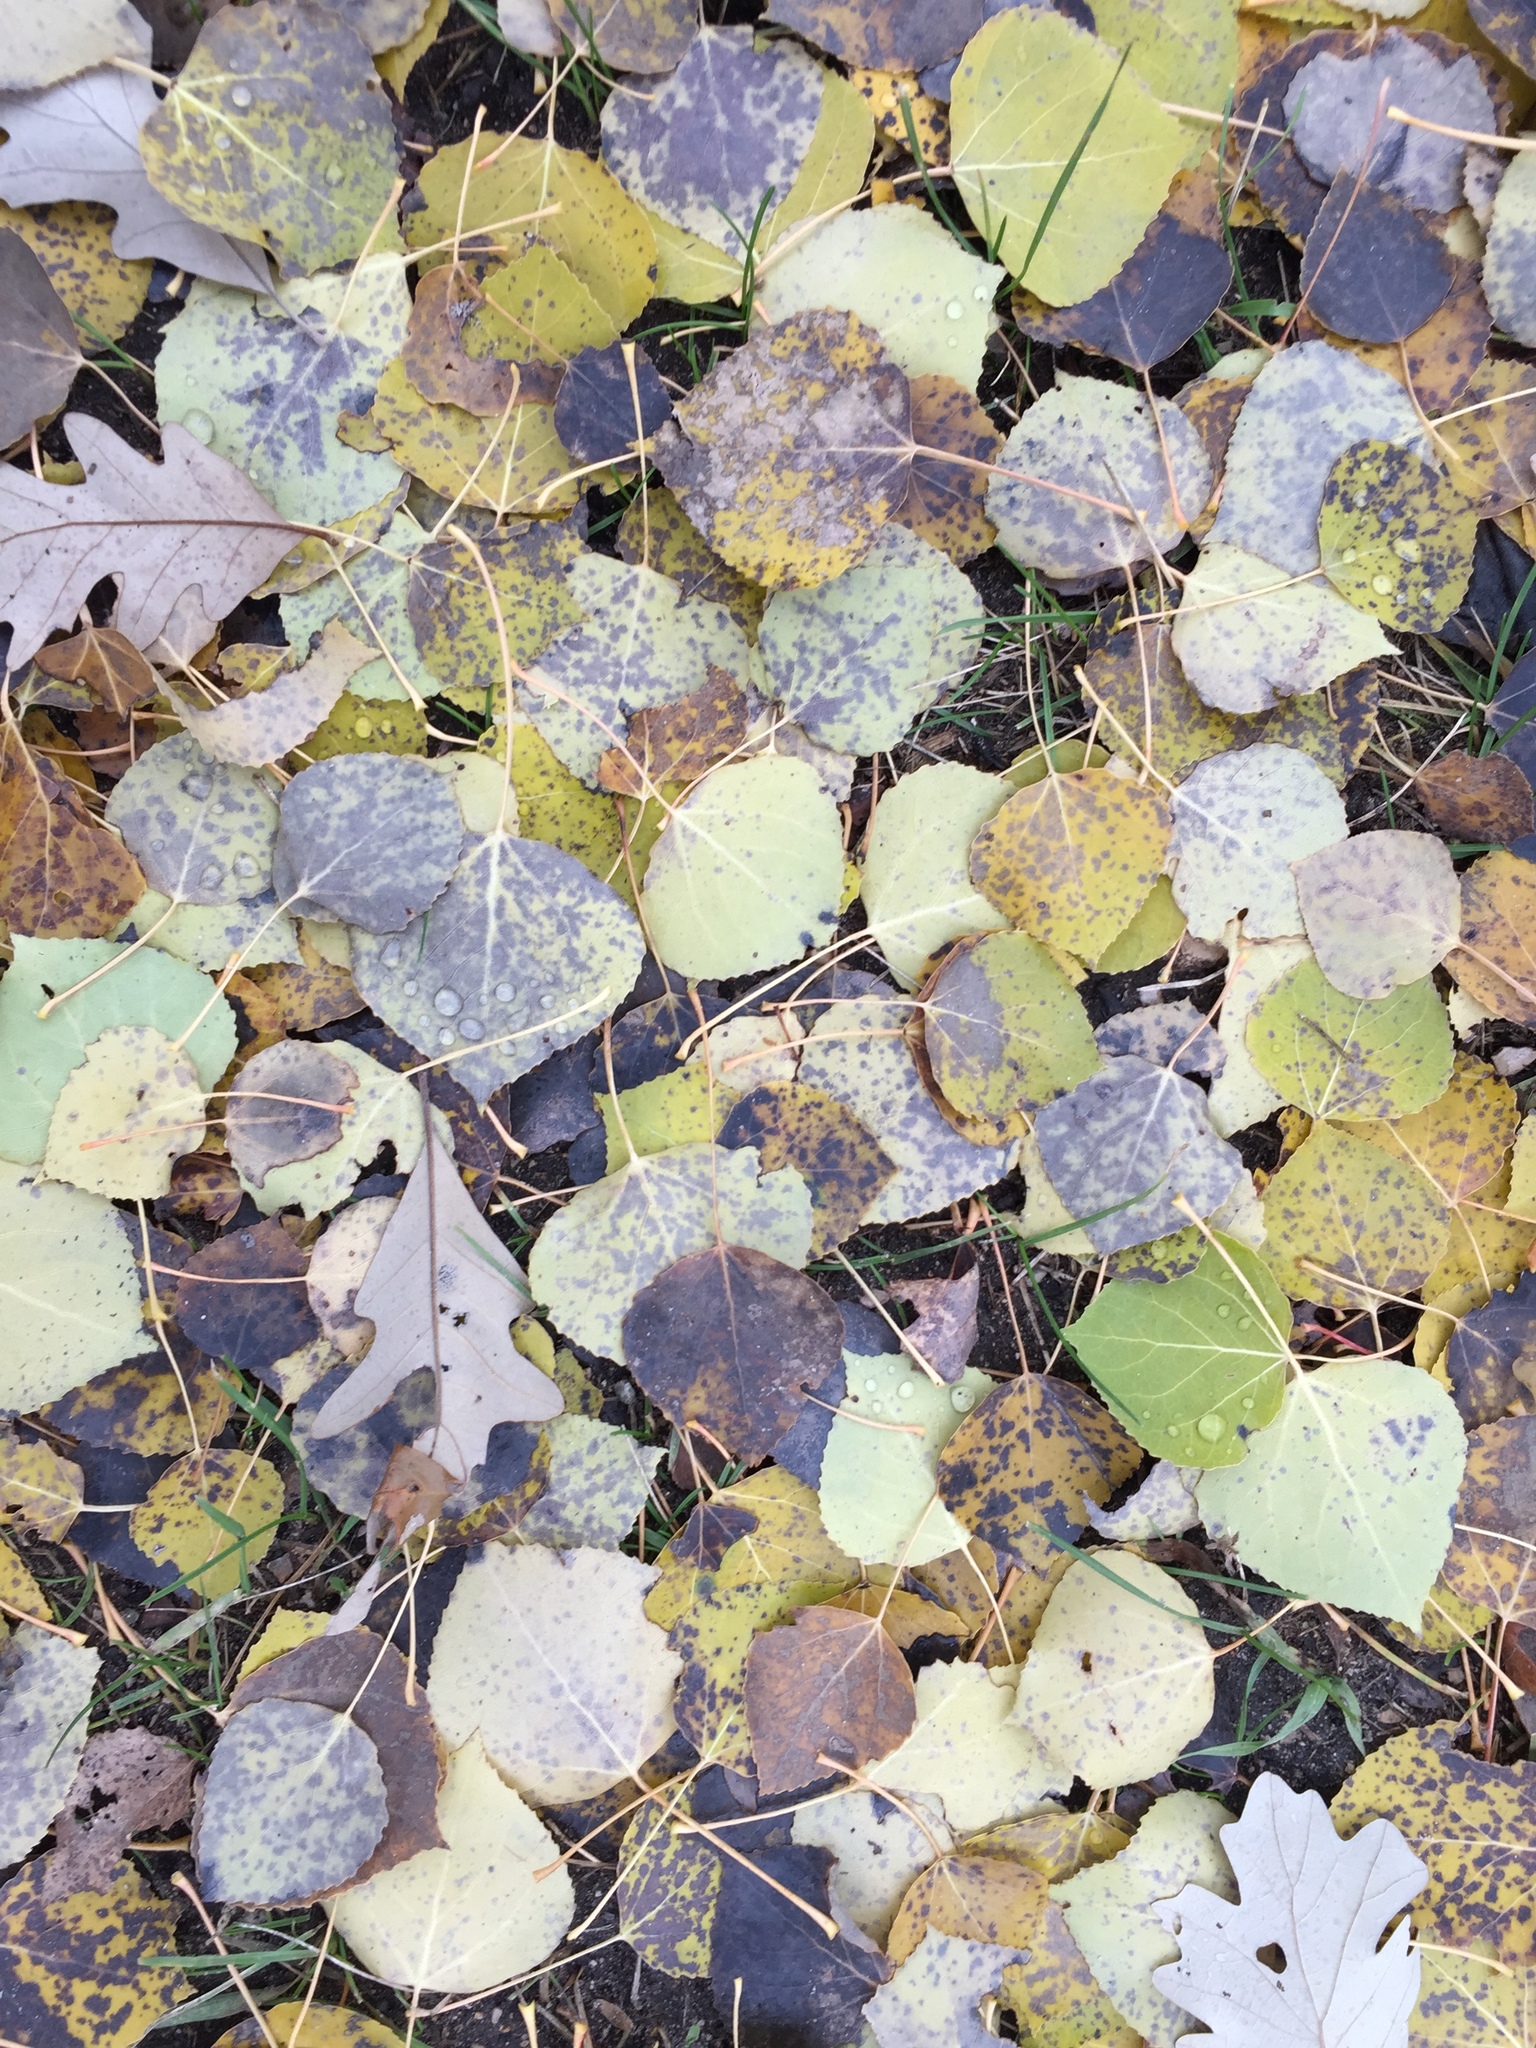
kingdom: Plantae
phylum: Tracheophyta
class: Magnoliopsida
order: Malpighiales
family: Salicaceae
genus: Populus
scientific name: Populus tremuloides
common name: Quaking aspen
